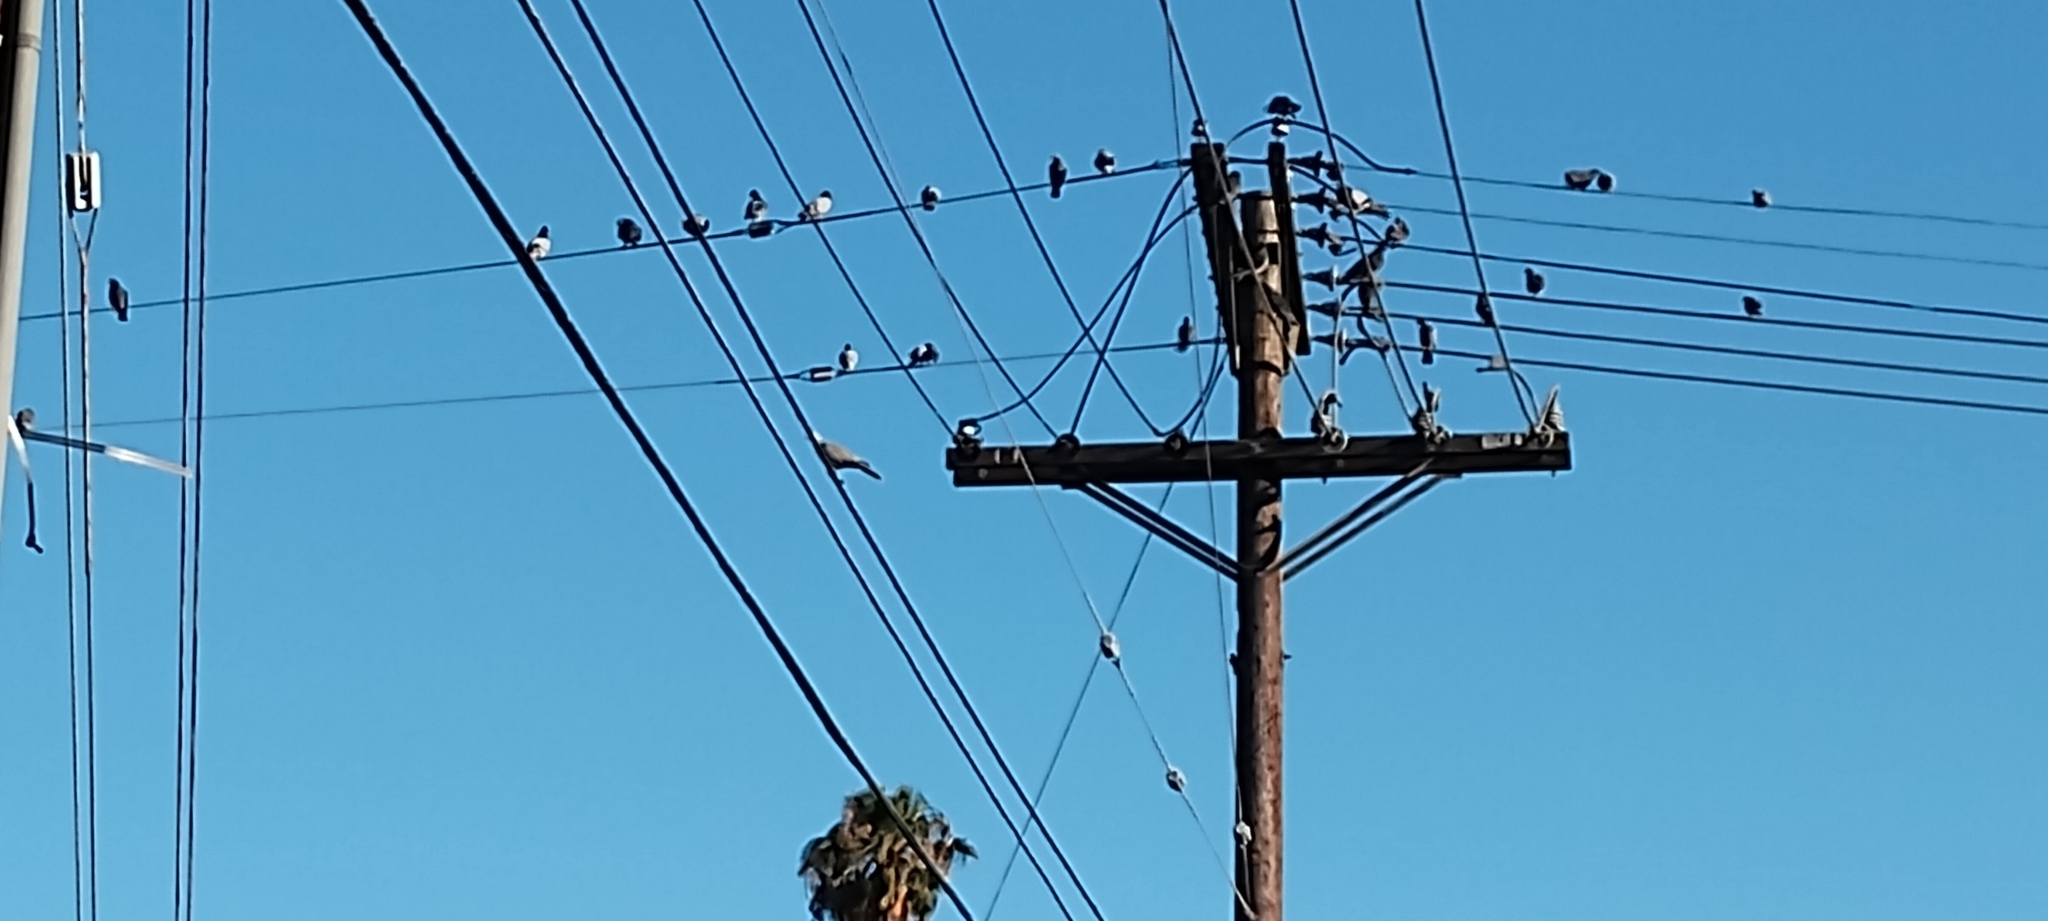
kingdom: Animalia
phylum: Chordata
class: Aves
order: Columbiformes
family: Columbidae
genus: Columba
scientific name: Columba livia
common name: Rock pigeon
